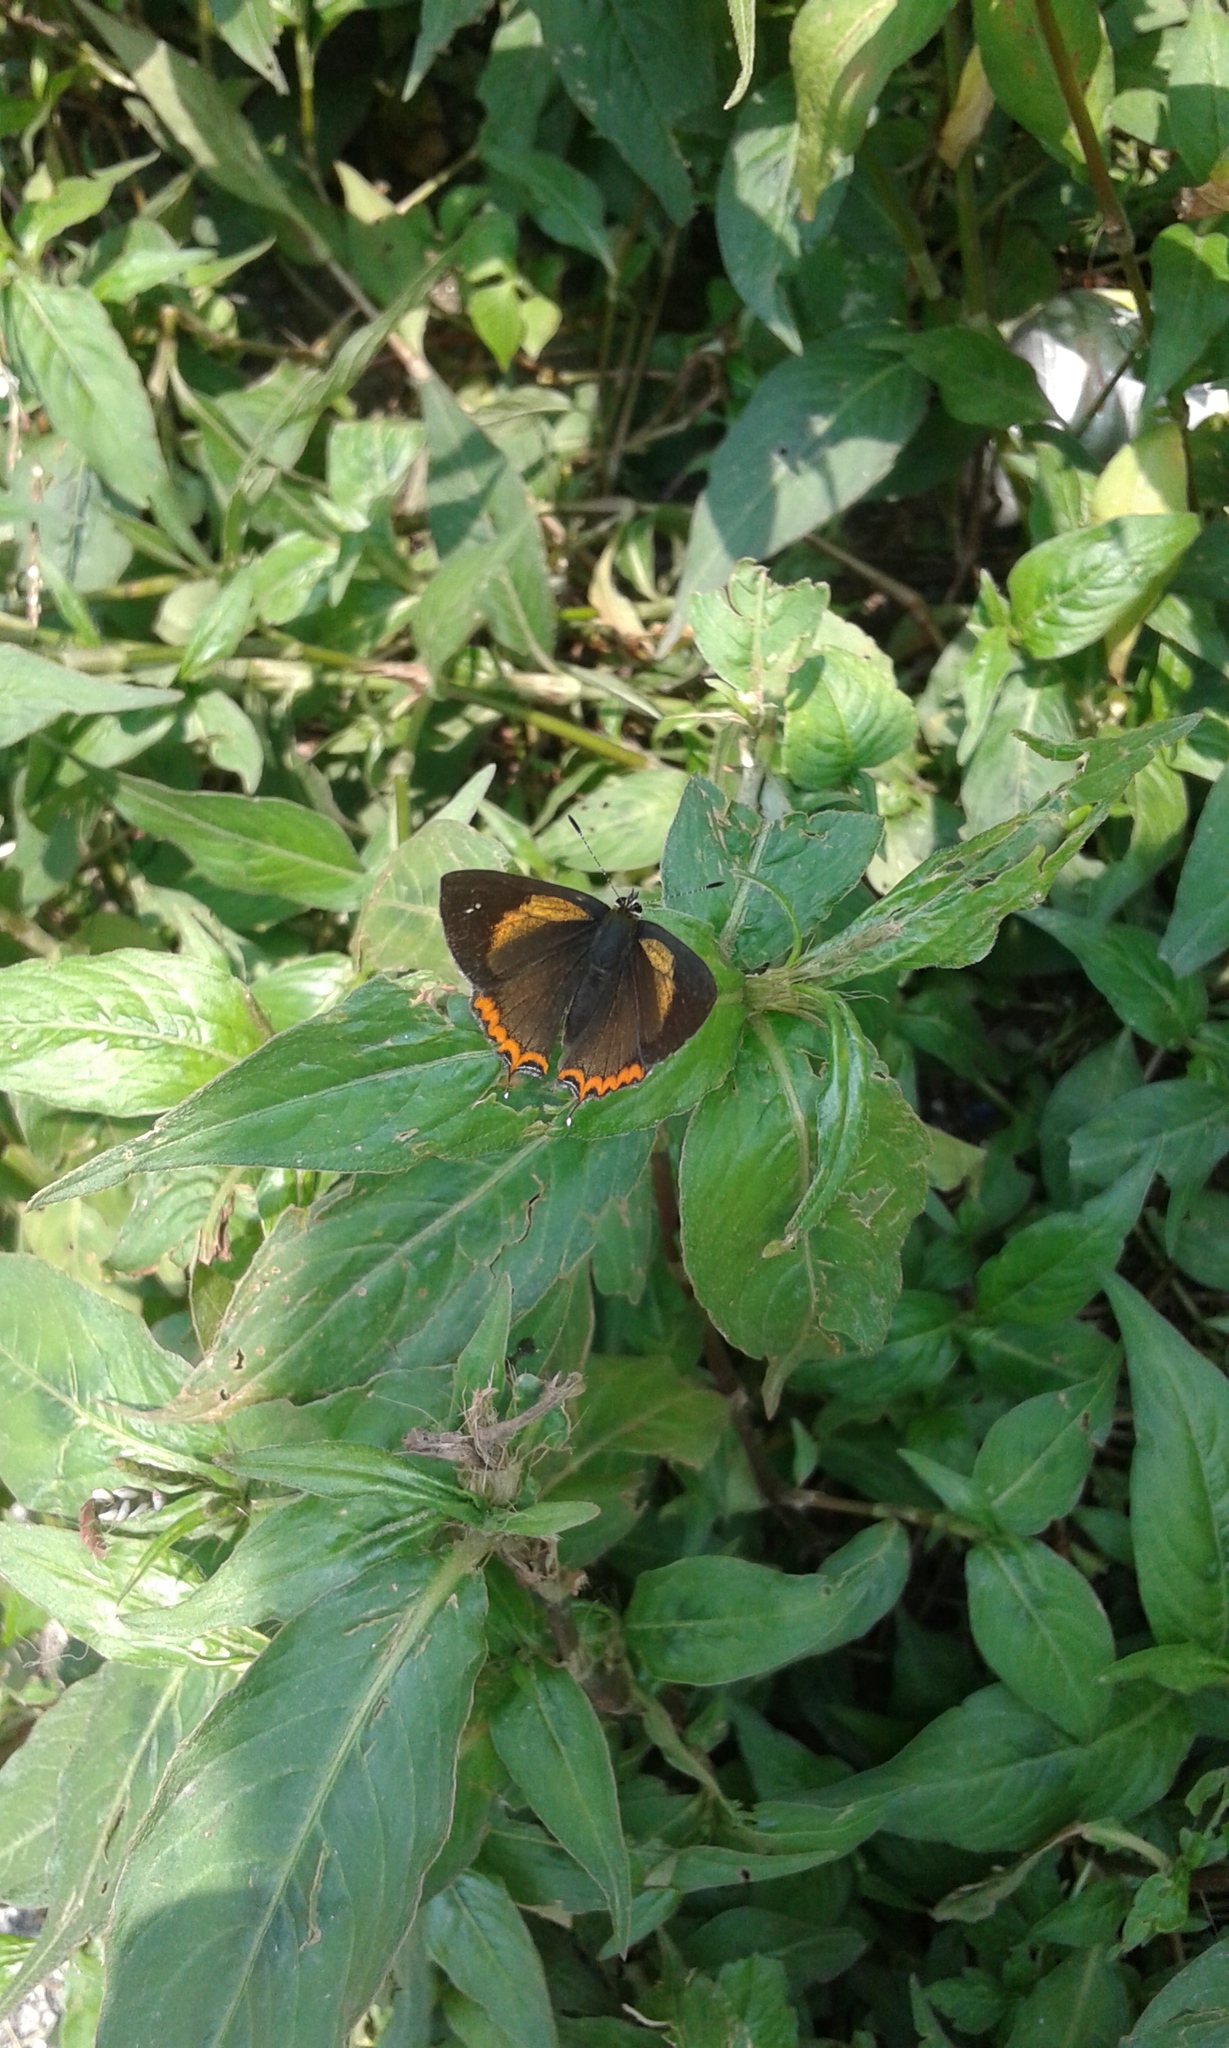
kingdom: Animalia
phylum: Arthropoda
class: Insecta
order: Lepidoptera
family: Lycaenidae
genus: Heliophorus
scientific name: Heliophorus brahma
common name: Golden sapphire
